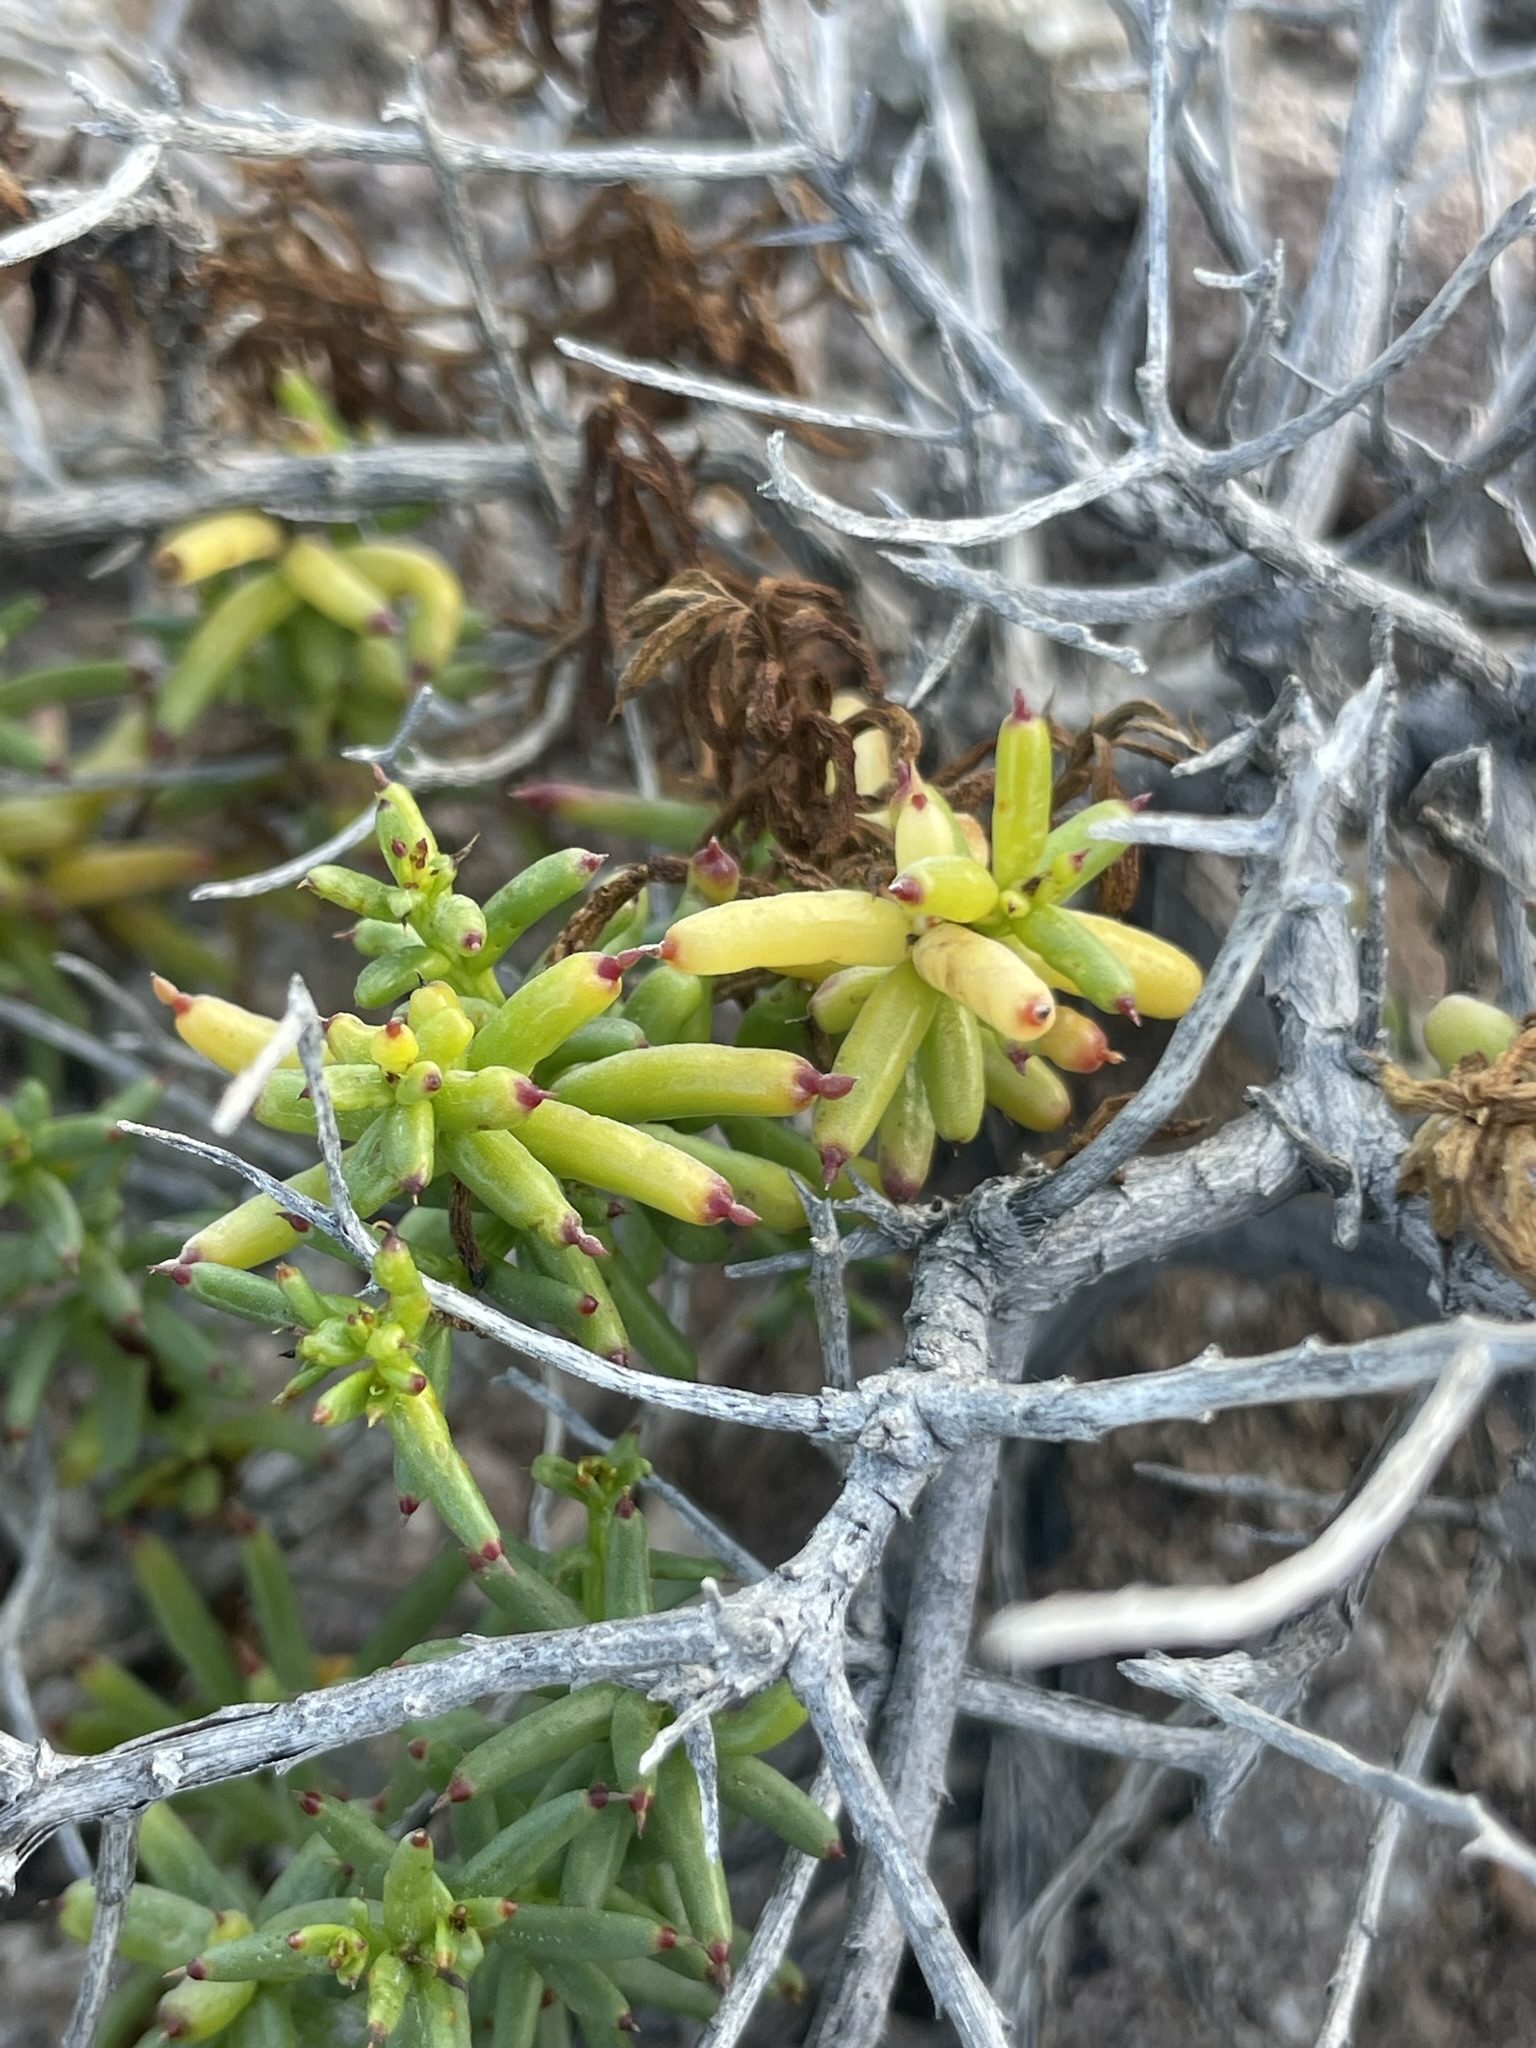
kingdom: Plantae
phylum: Tracheophyta
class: Magnoliopsida
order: Asterales
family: Asteraceae
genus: Bajacalia
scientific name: Bajacalia crassifolia
